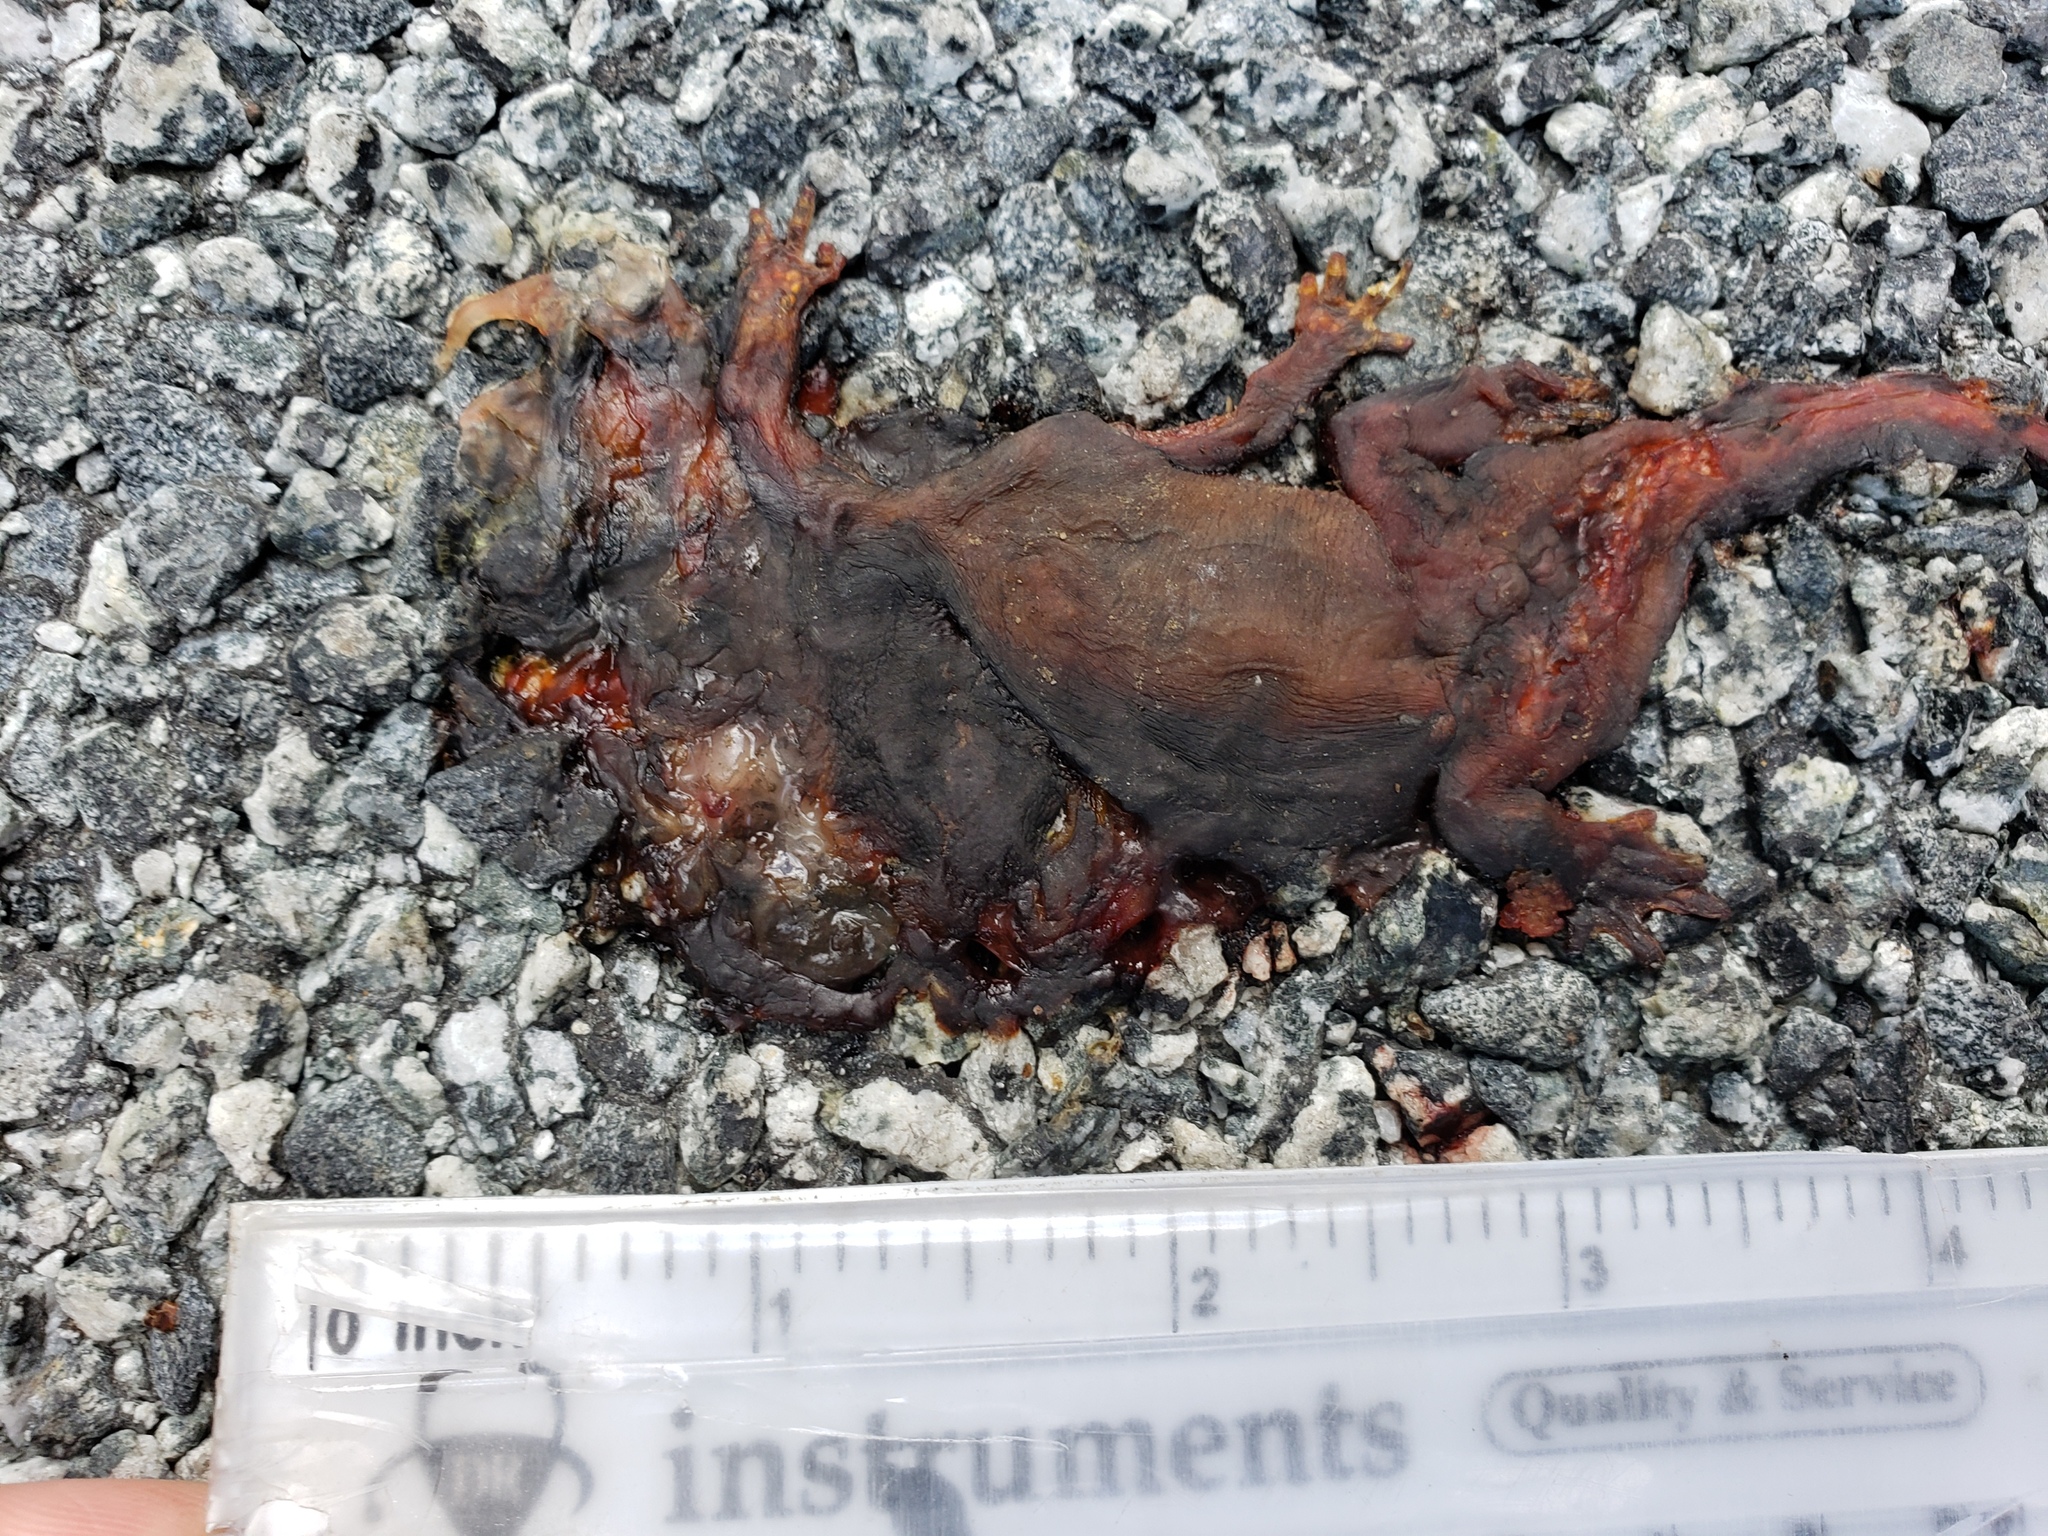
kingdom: Animalia
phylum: Chordata
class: Amphibia
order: Caudata
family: Salamandridae
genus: Taricha
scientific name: Taricha
